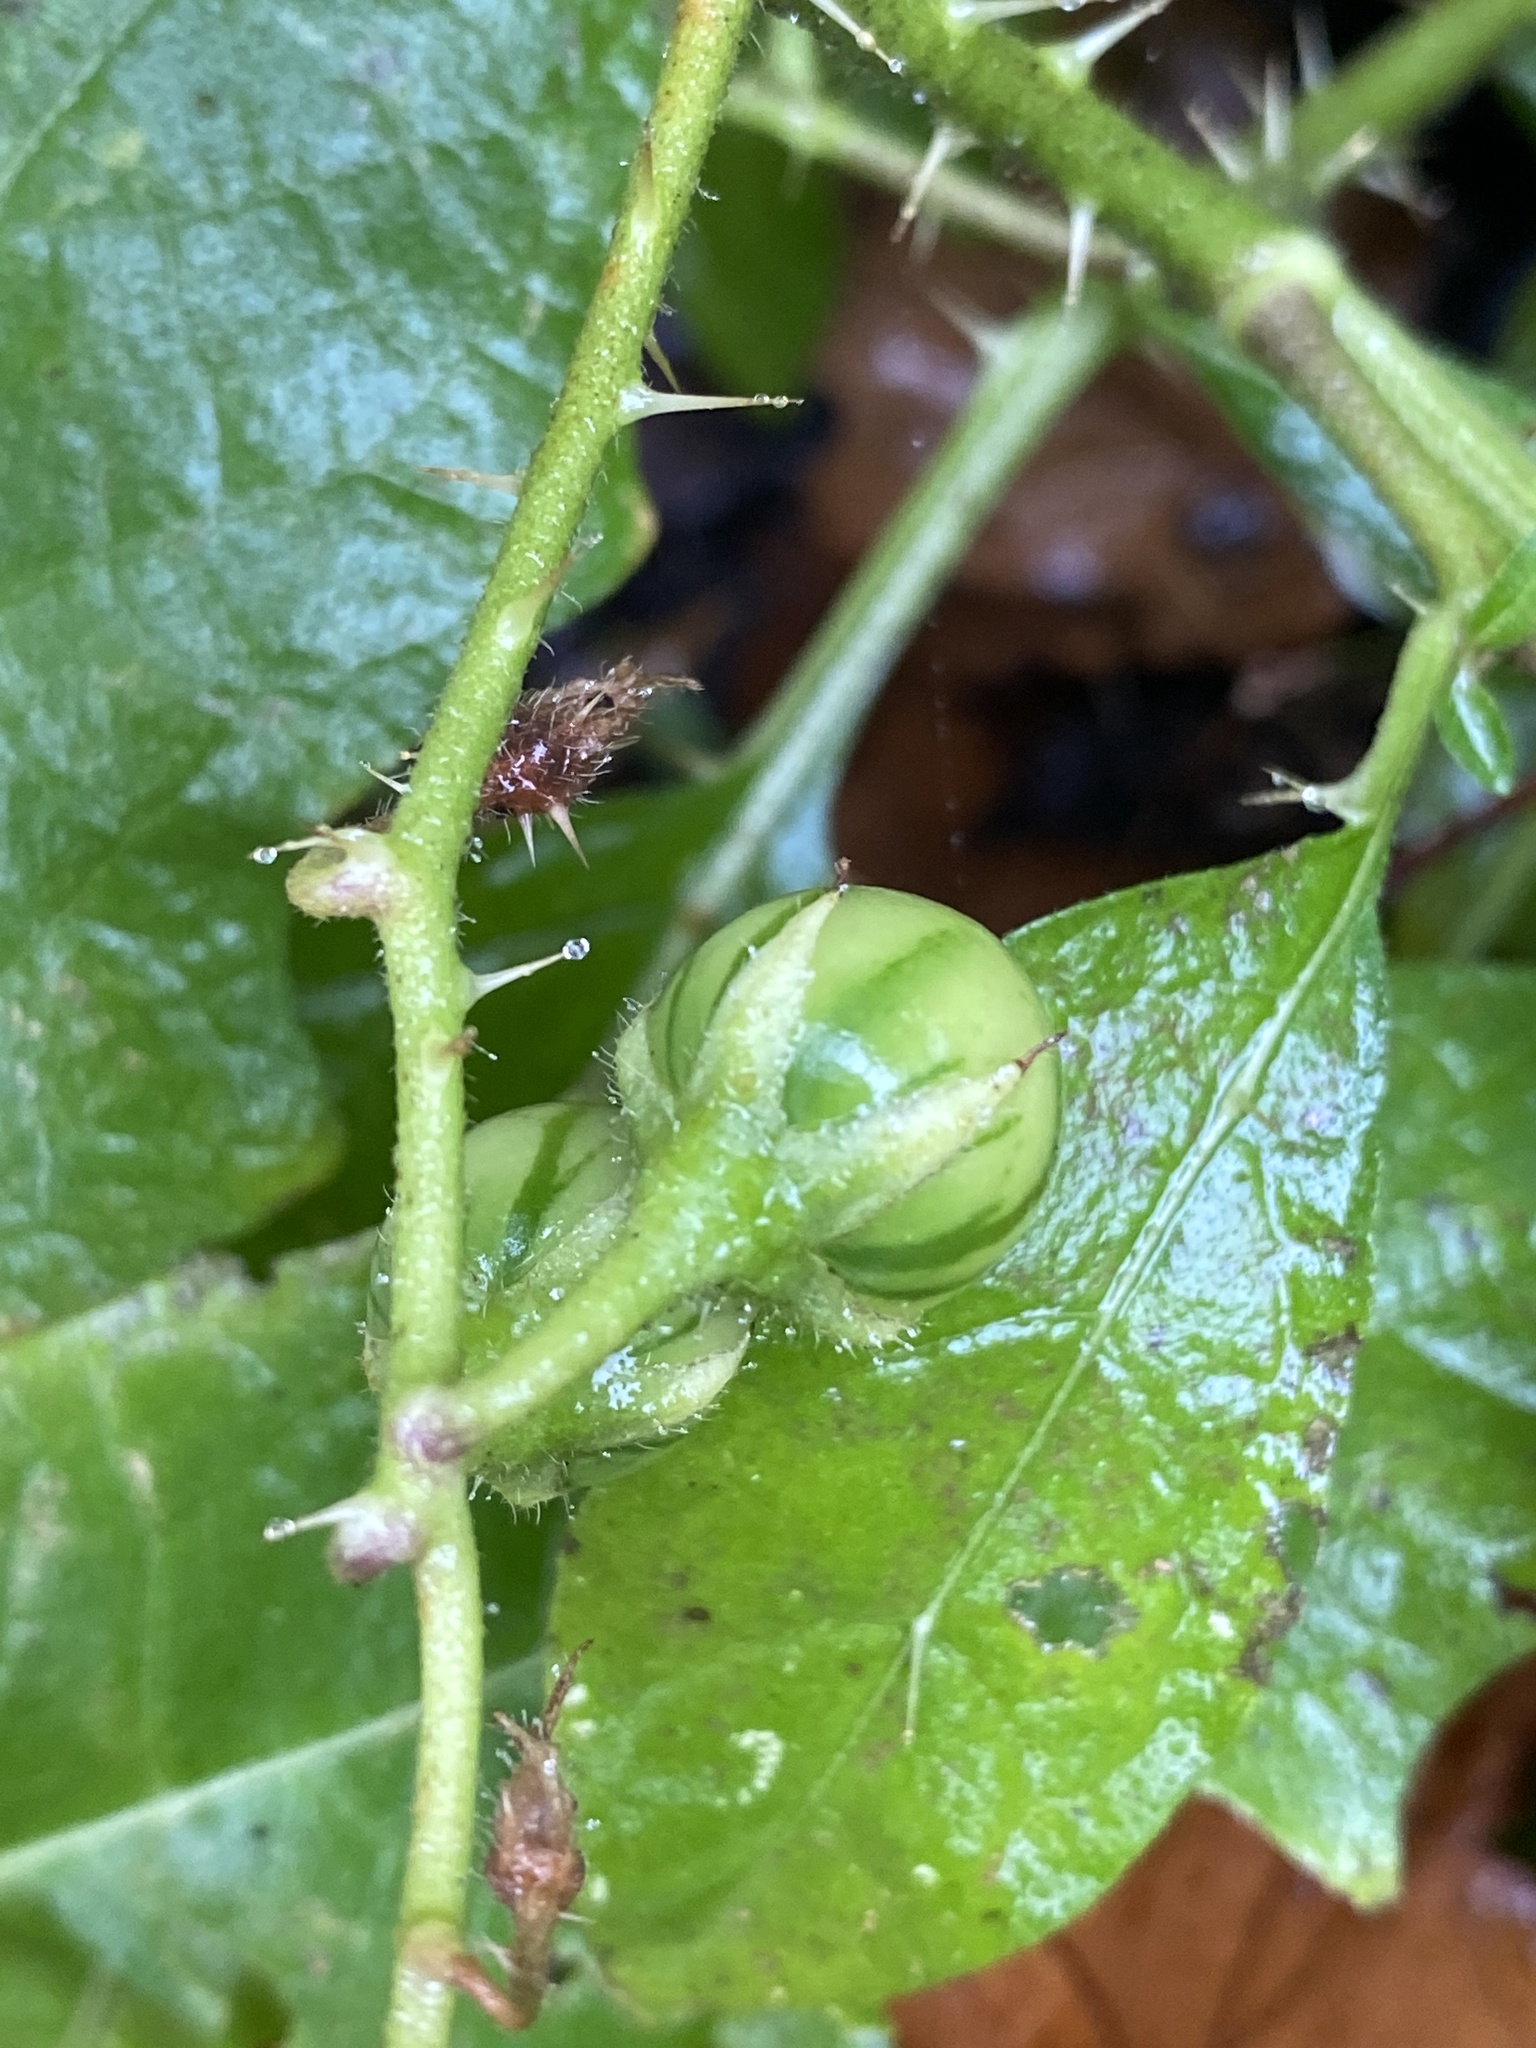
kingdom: Plantae
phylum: Tracheophyta
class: Magnoliopsida
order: Solanales
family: Solanaceae
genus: Solanum
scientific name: Solanum carolinense
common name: Horse-nettle
